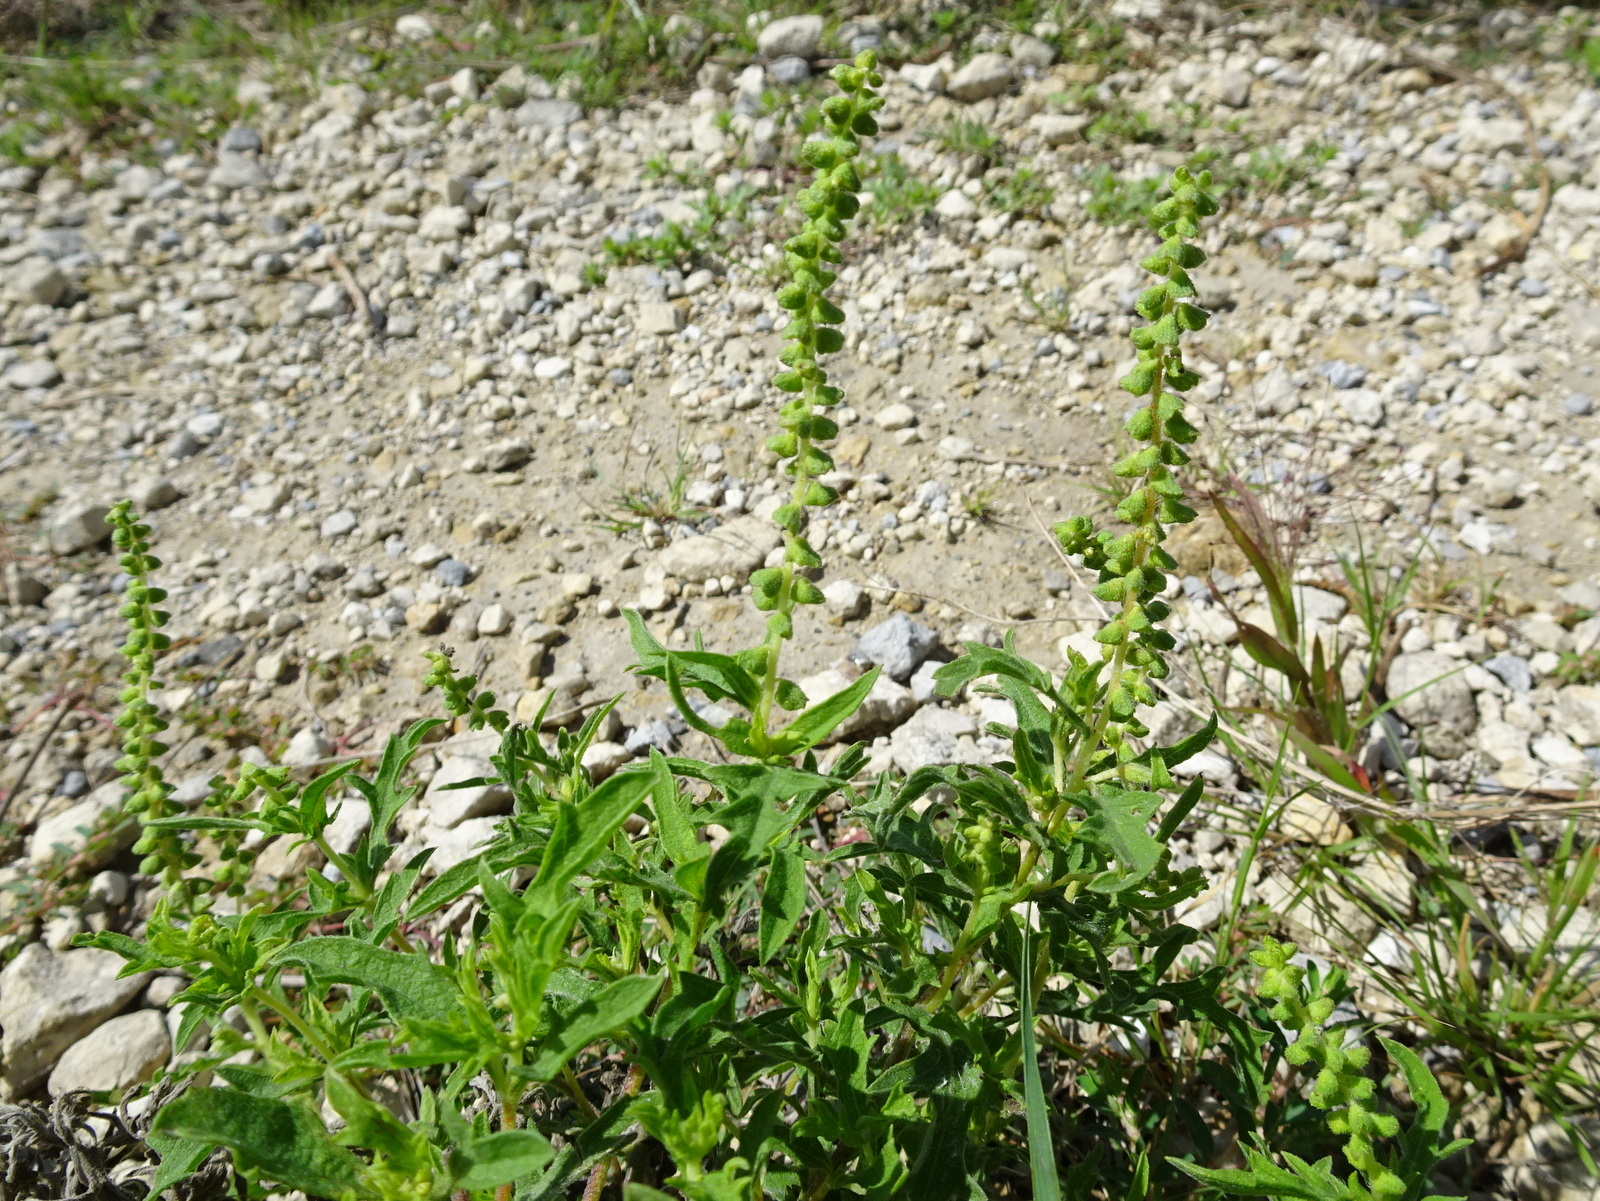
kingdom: Plantae
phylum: Tracheophyta
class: Magnoliopsida
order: Asterales
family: Asteraceae
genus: Ambrosia
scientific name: Ambrosia psilostachya
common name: Perennial ragweed
